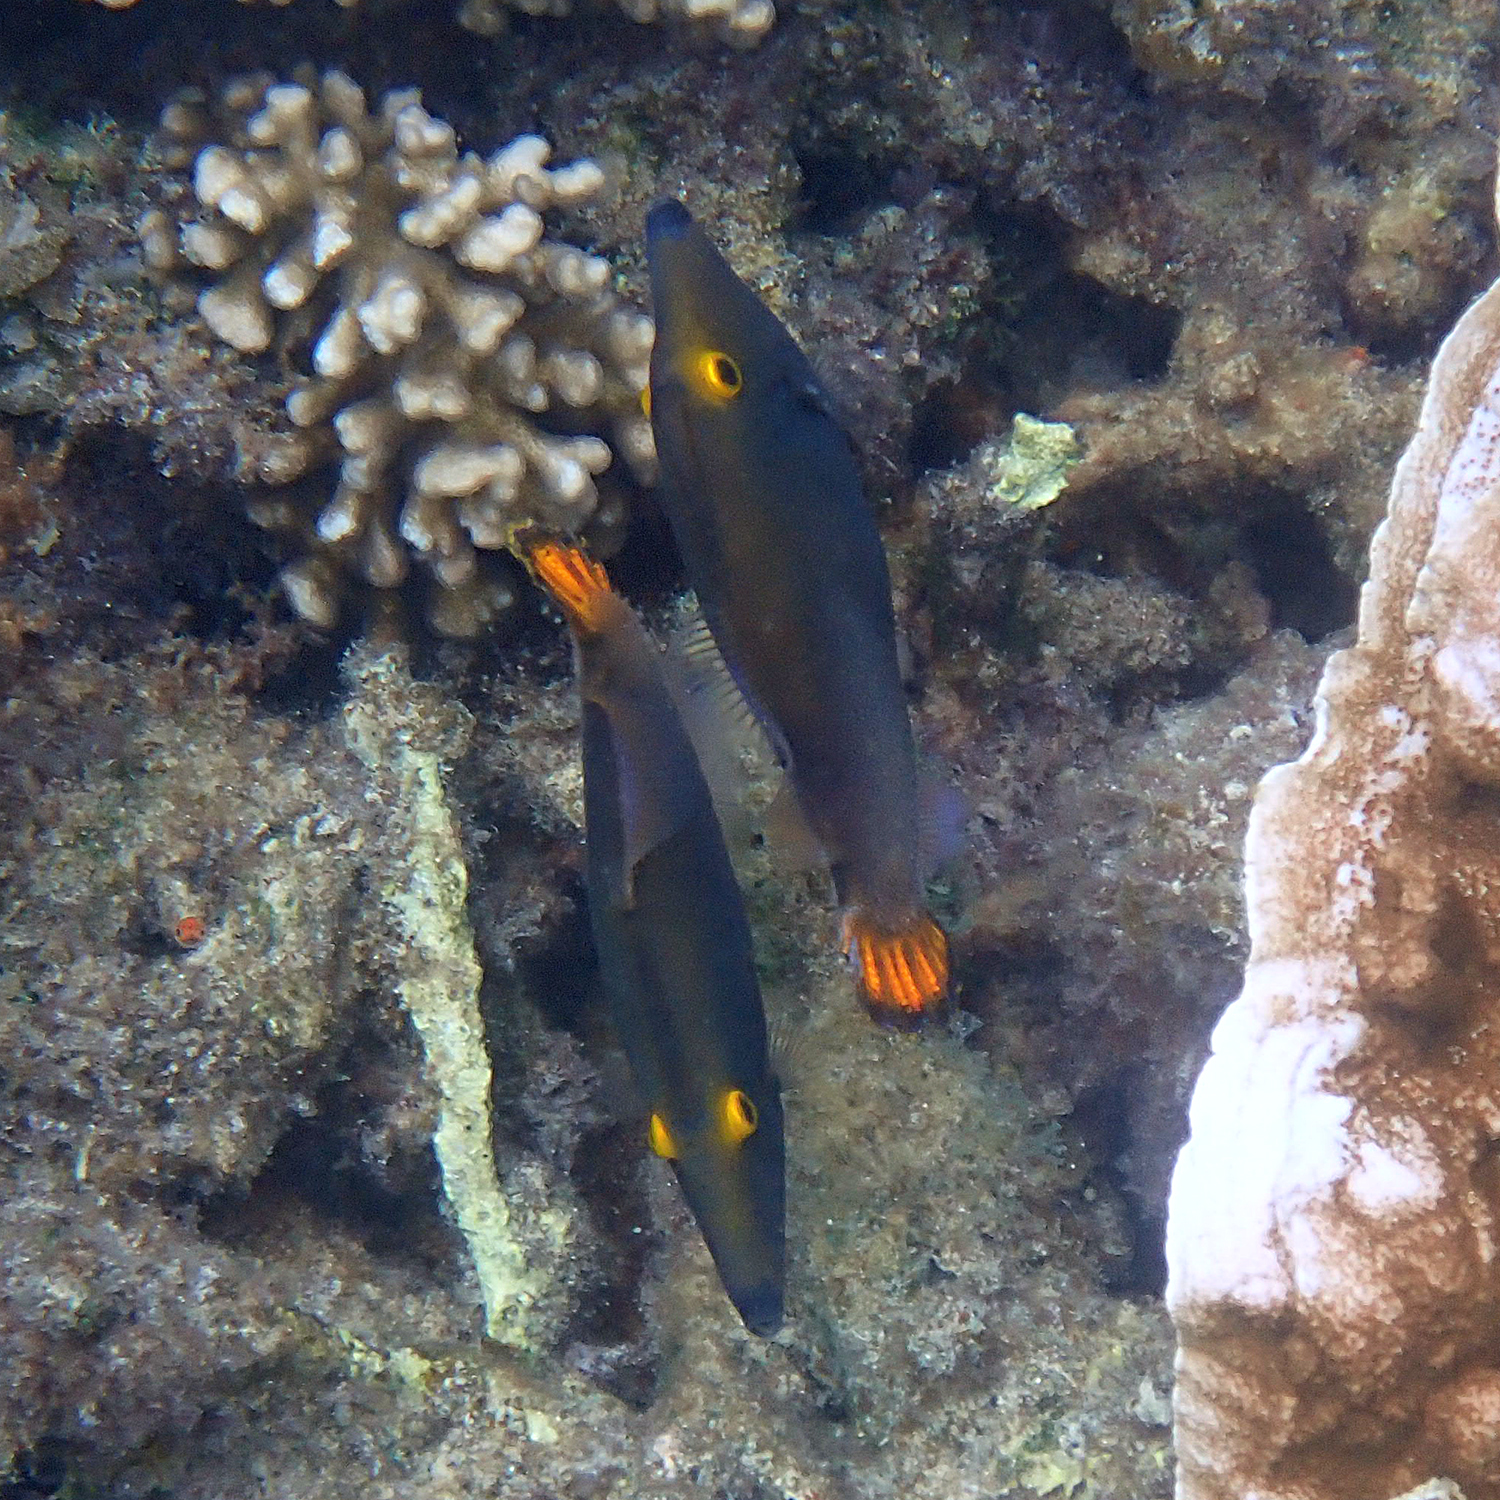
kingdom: Animalia
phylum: Chordata
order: Tetraodontiformes
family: Monacanthidae
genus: Pervagor
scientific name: Pervagor alternans
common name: Yelloweye filefish
